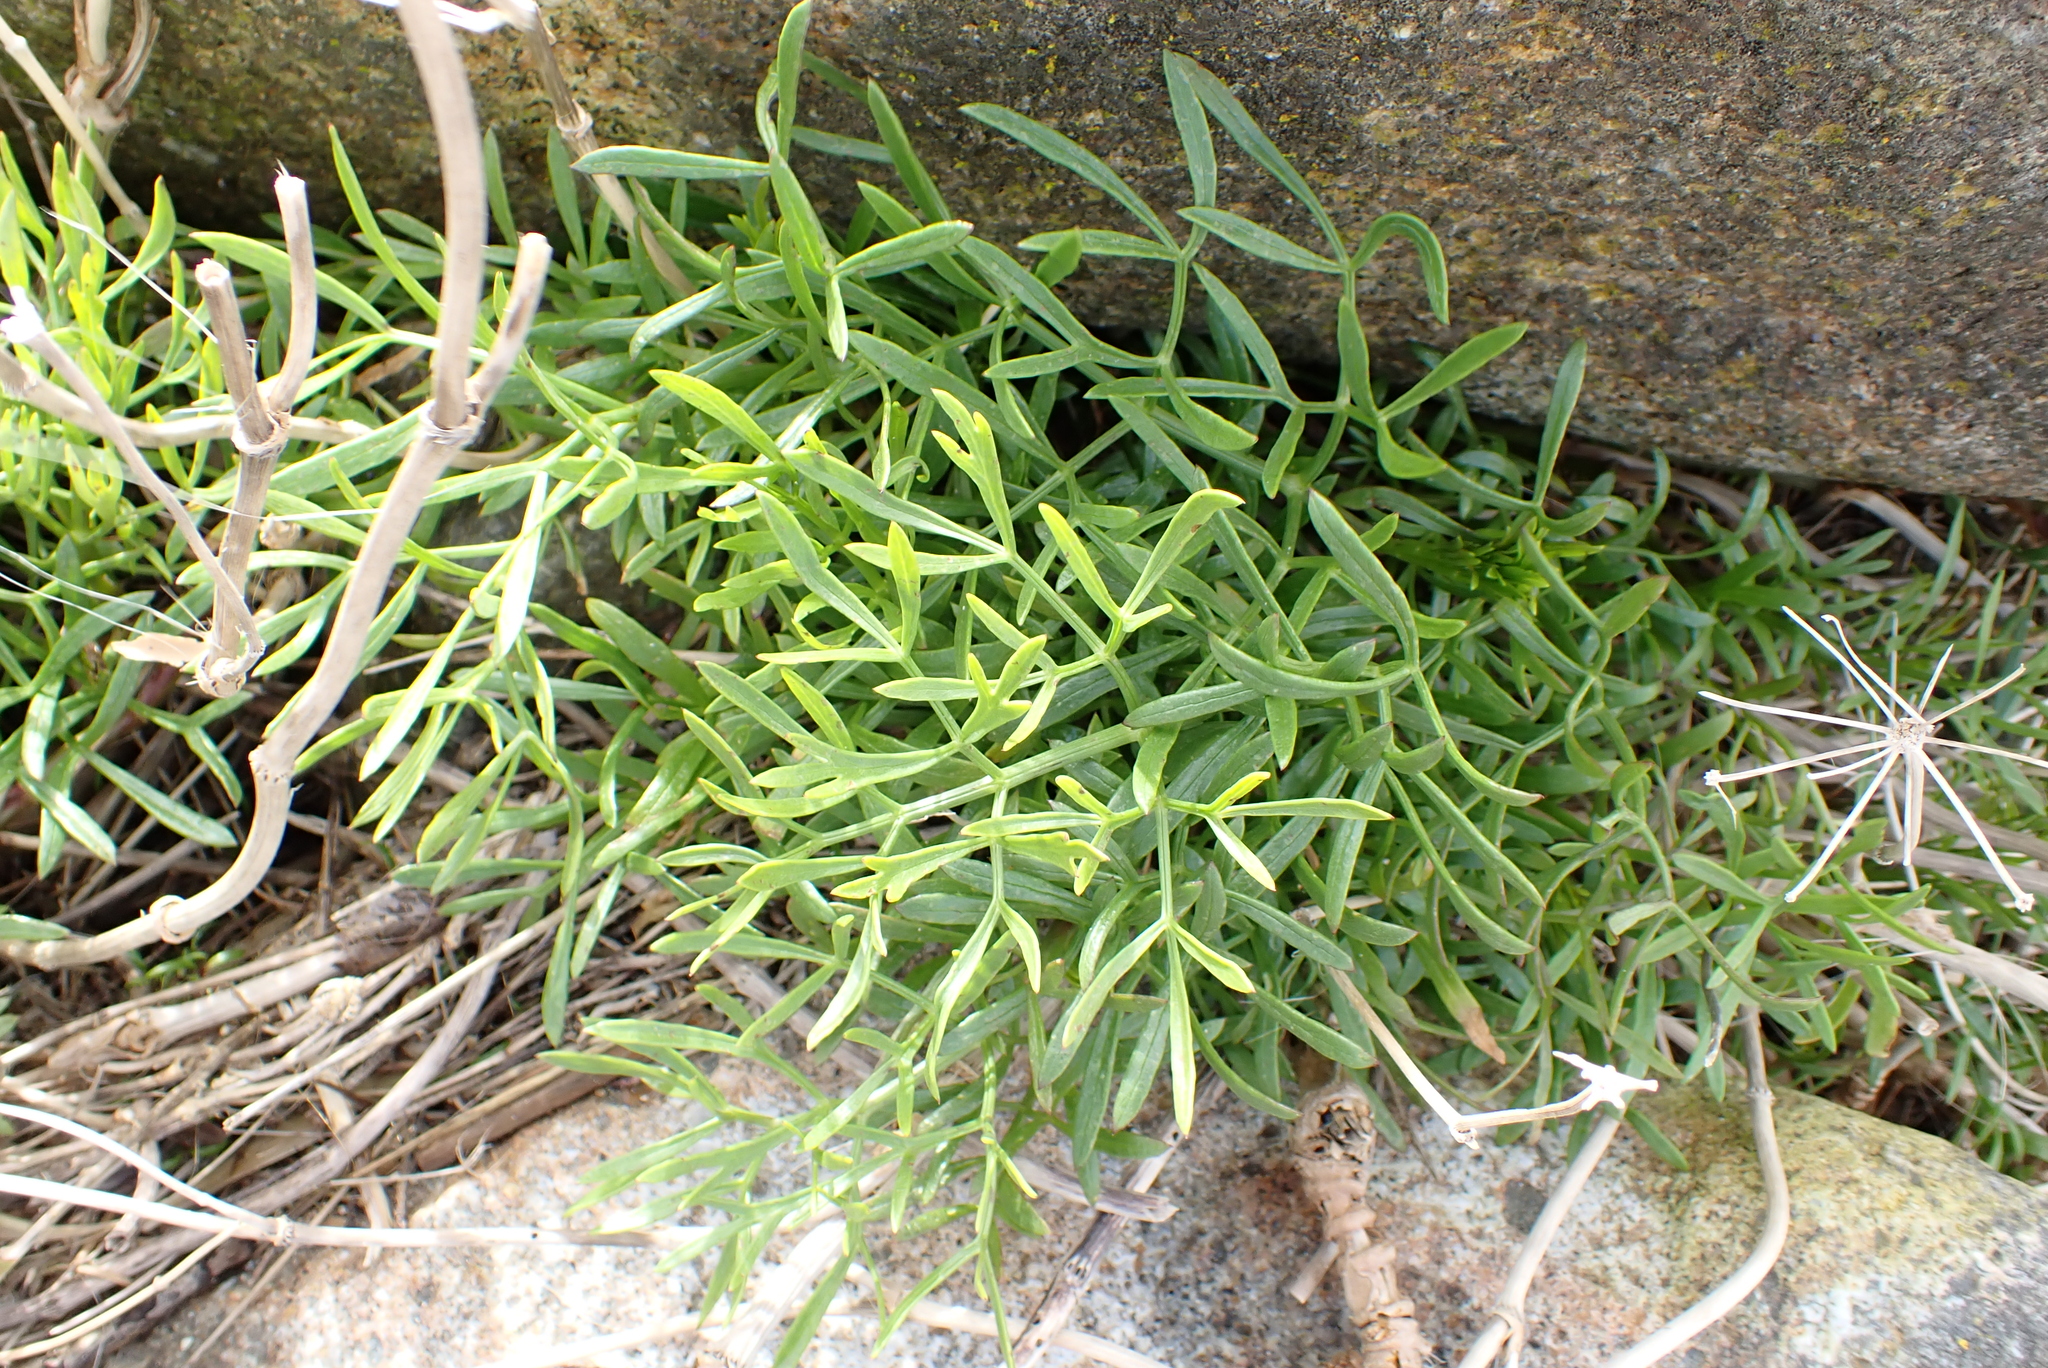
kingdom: Plantae
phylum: Tracheophyta
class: Magnoliopsida
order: Apiales
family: Apiaceae
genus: Crithmum
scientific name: Crithmum maritimum
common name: Rock samphire
